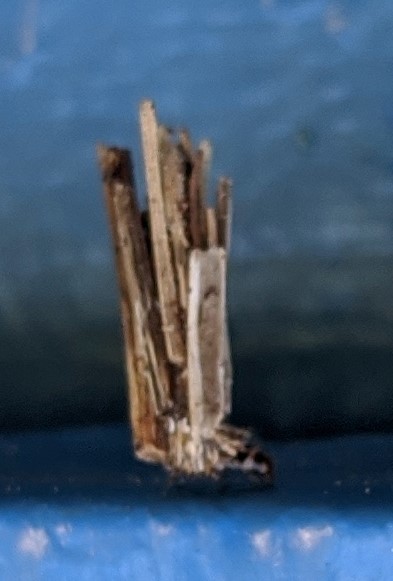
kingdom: Animalia
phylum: Arthropoda
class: Insecta
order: Lepidoptera
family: Psychidae
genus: Psyche
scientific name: Psyche casta
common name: Common sweep
